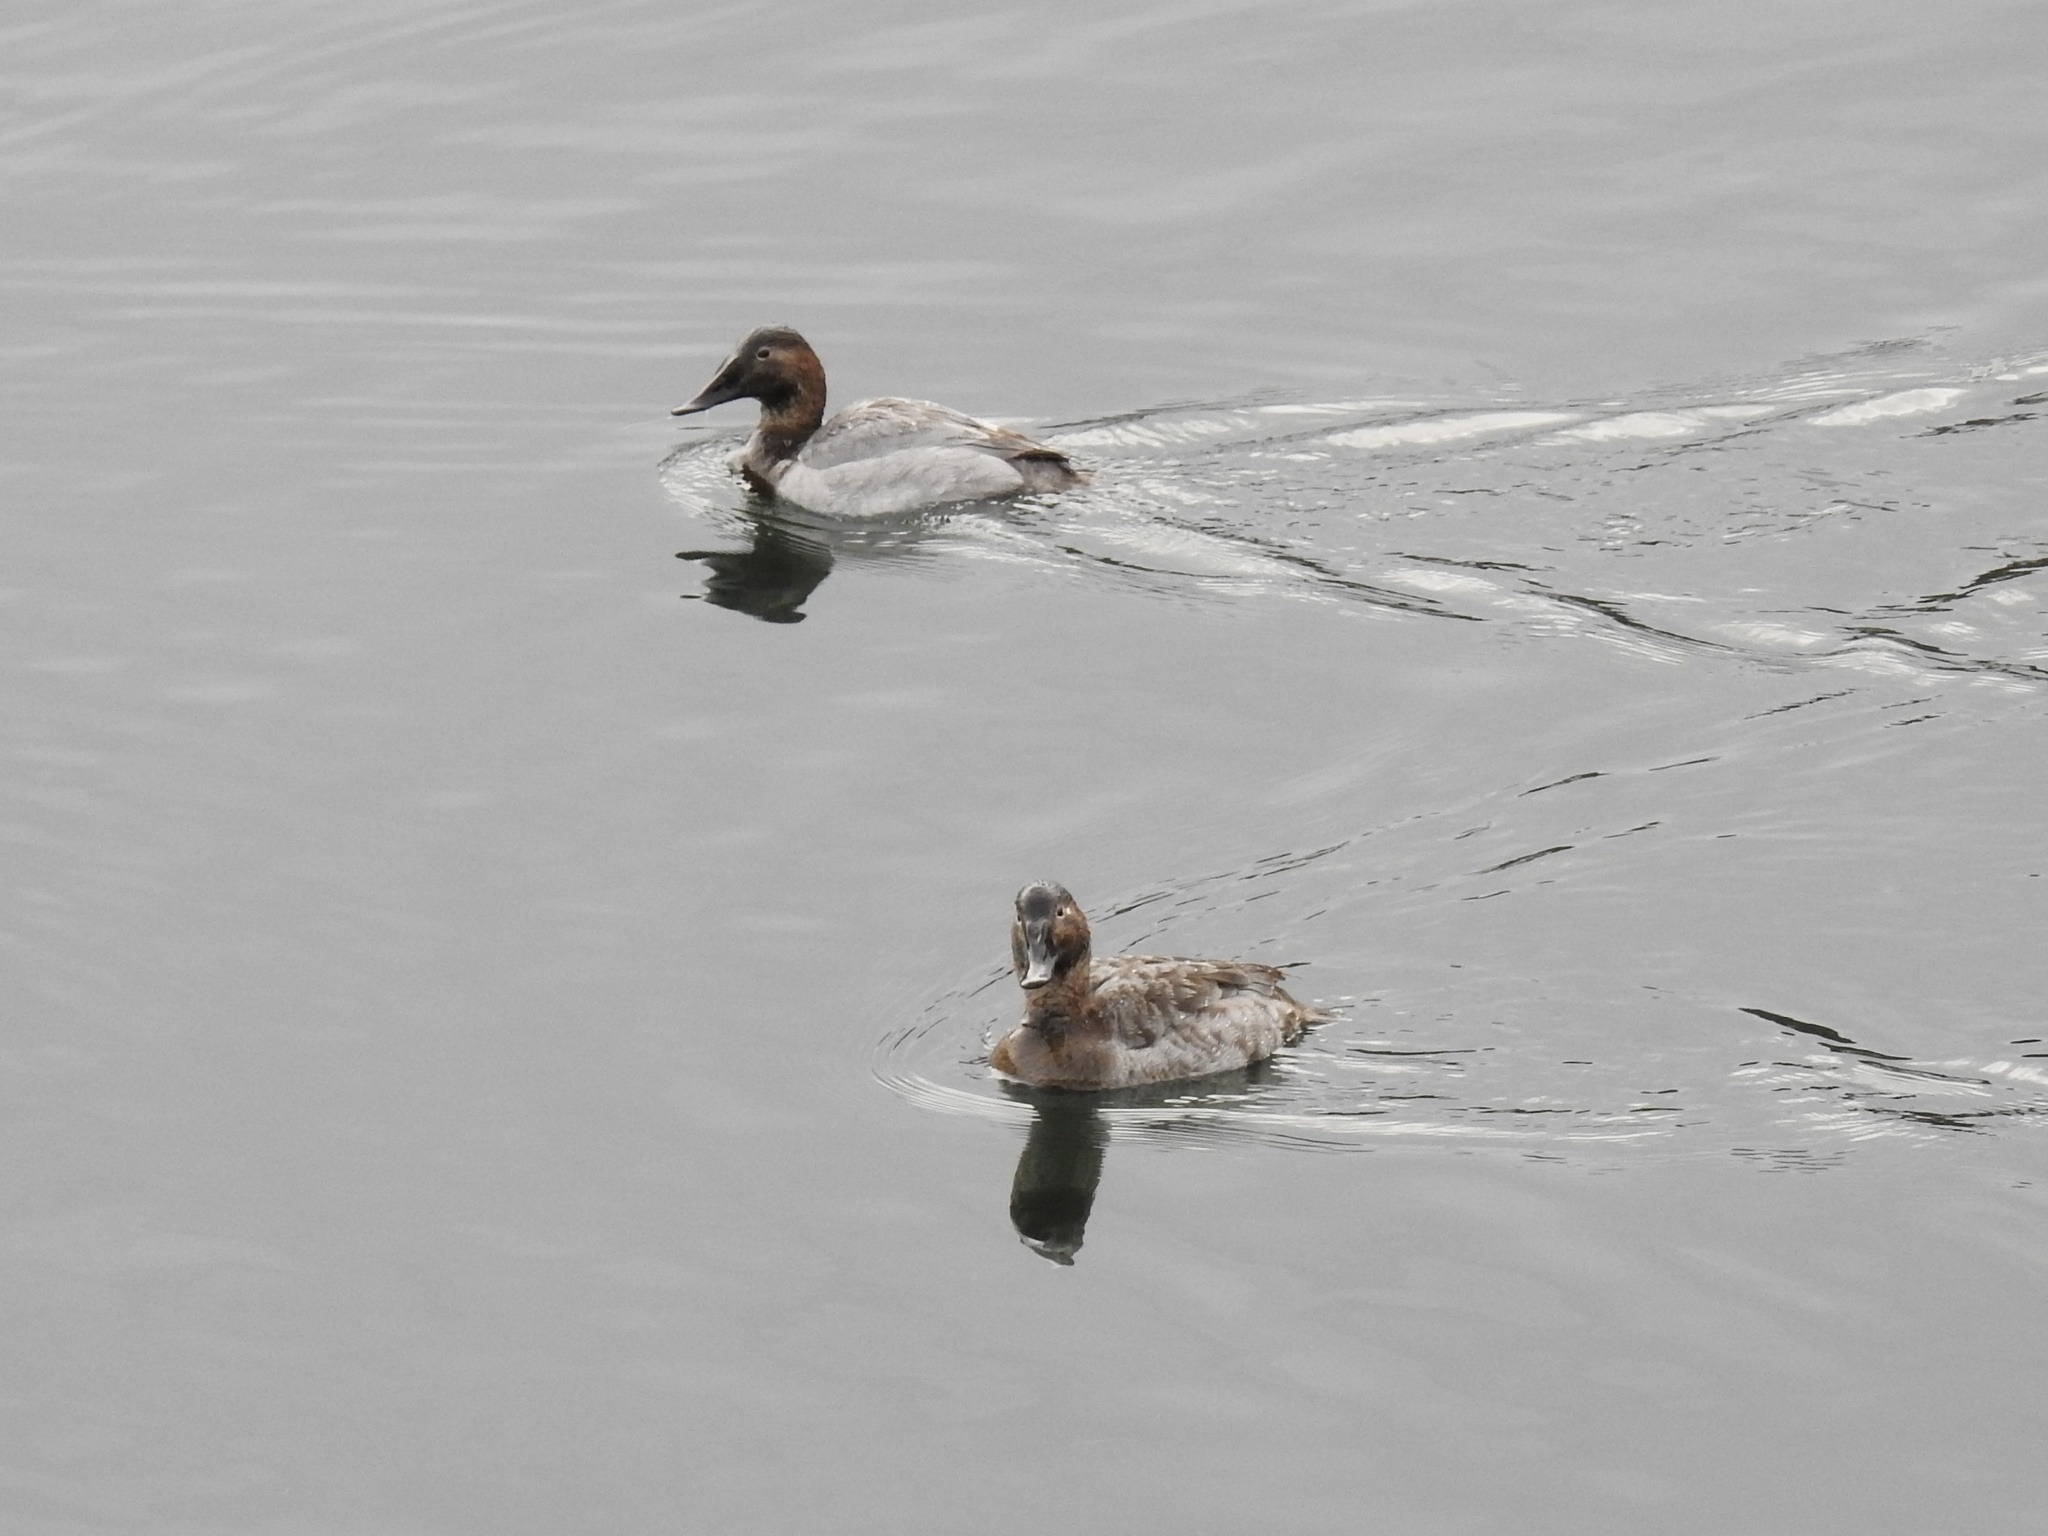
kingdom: Animalia
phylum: Chordata
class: Aves
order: Anseriformes
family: Anatidae
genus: Aythya
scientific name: Aythya valisineria
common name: Canvasback
